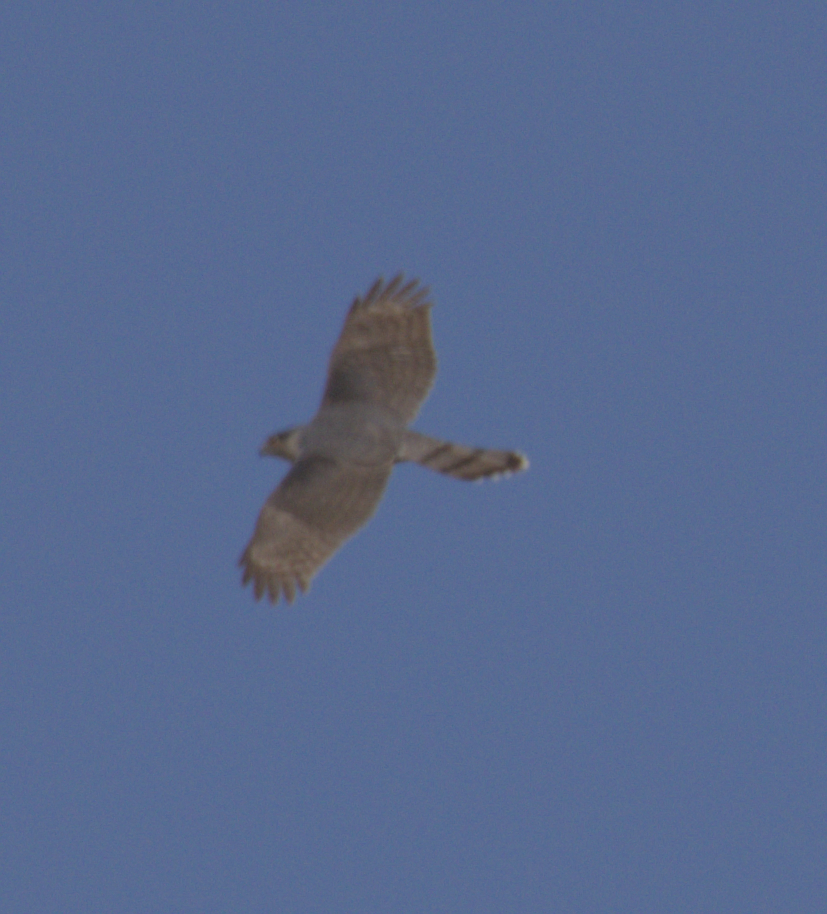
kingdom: Animalia
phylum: Chordata
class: Aves
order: Accipitriformes
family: Accipitridae
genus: Accipiter
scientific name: Accipiter cooperii
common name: Cooper's hawk
